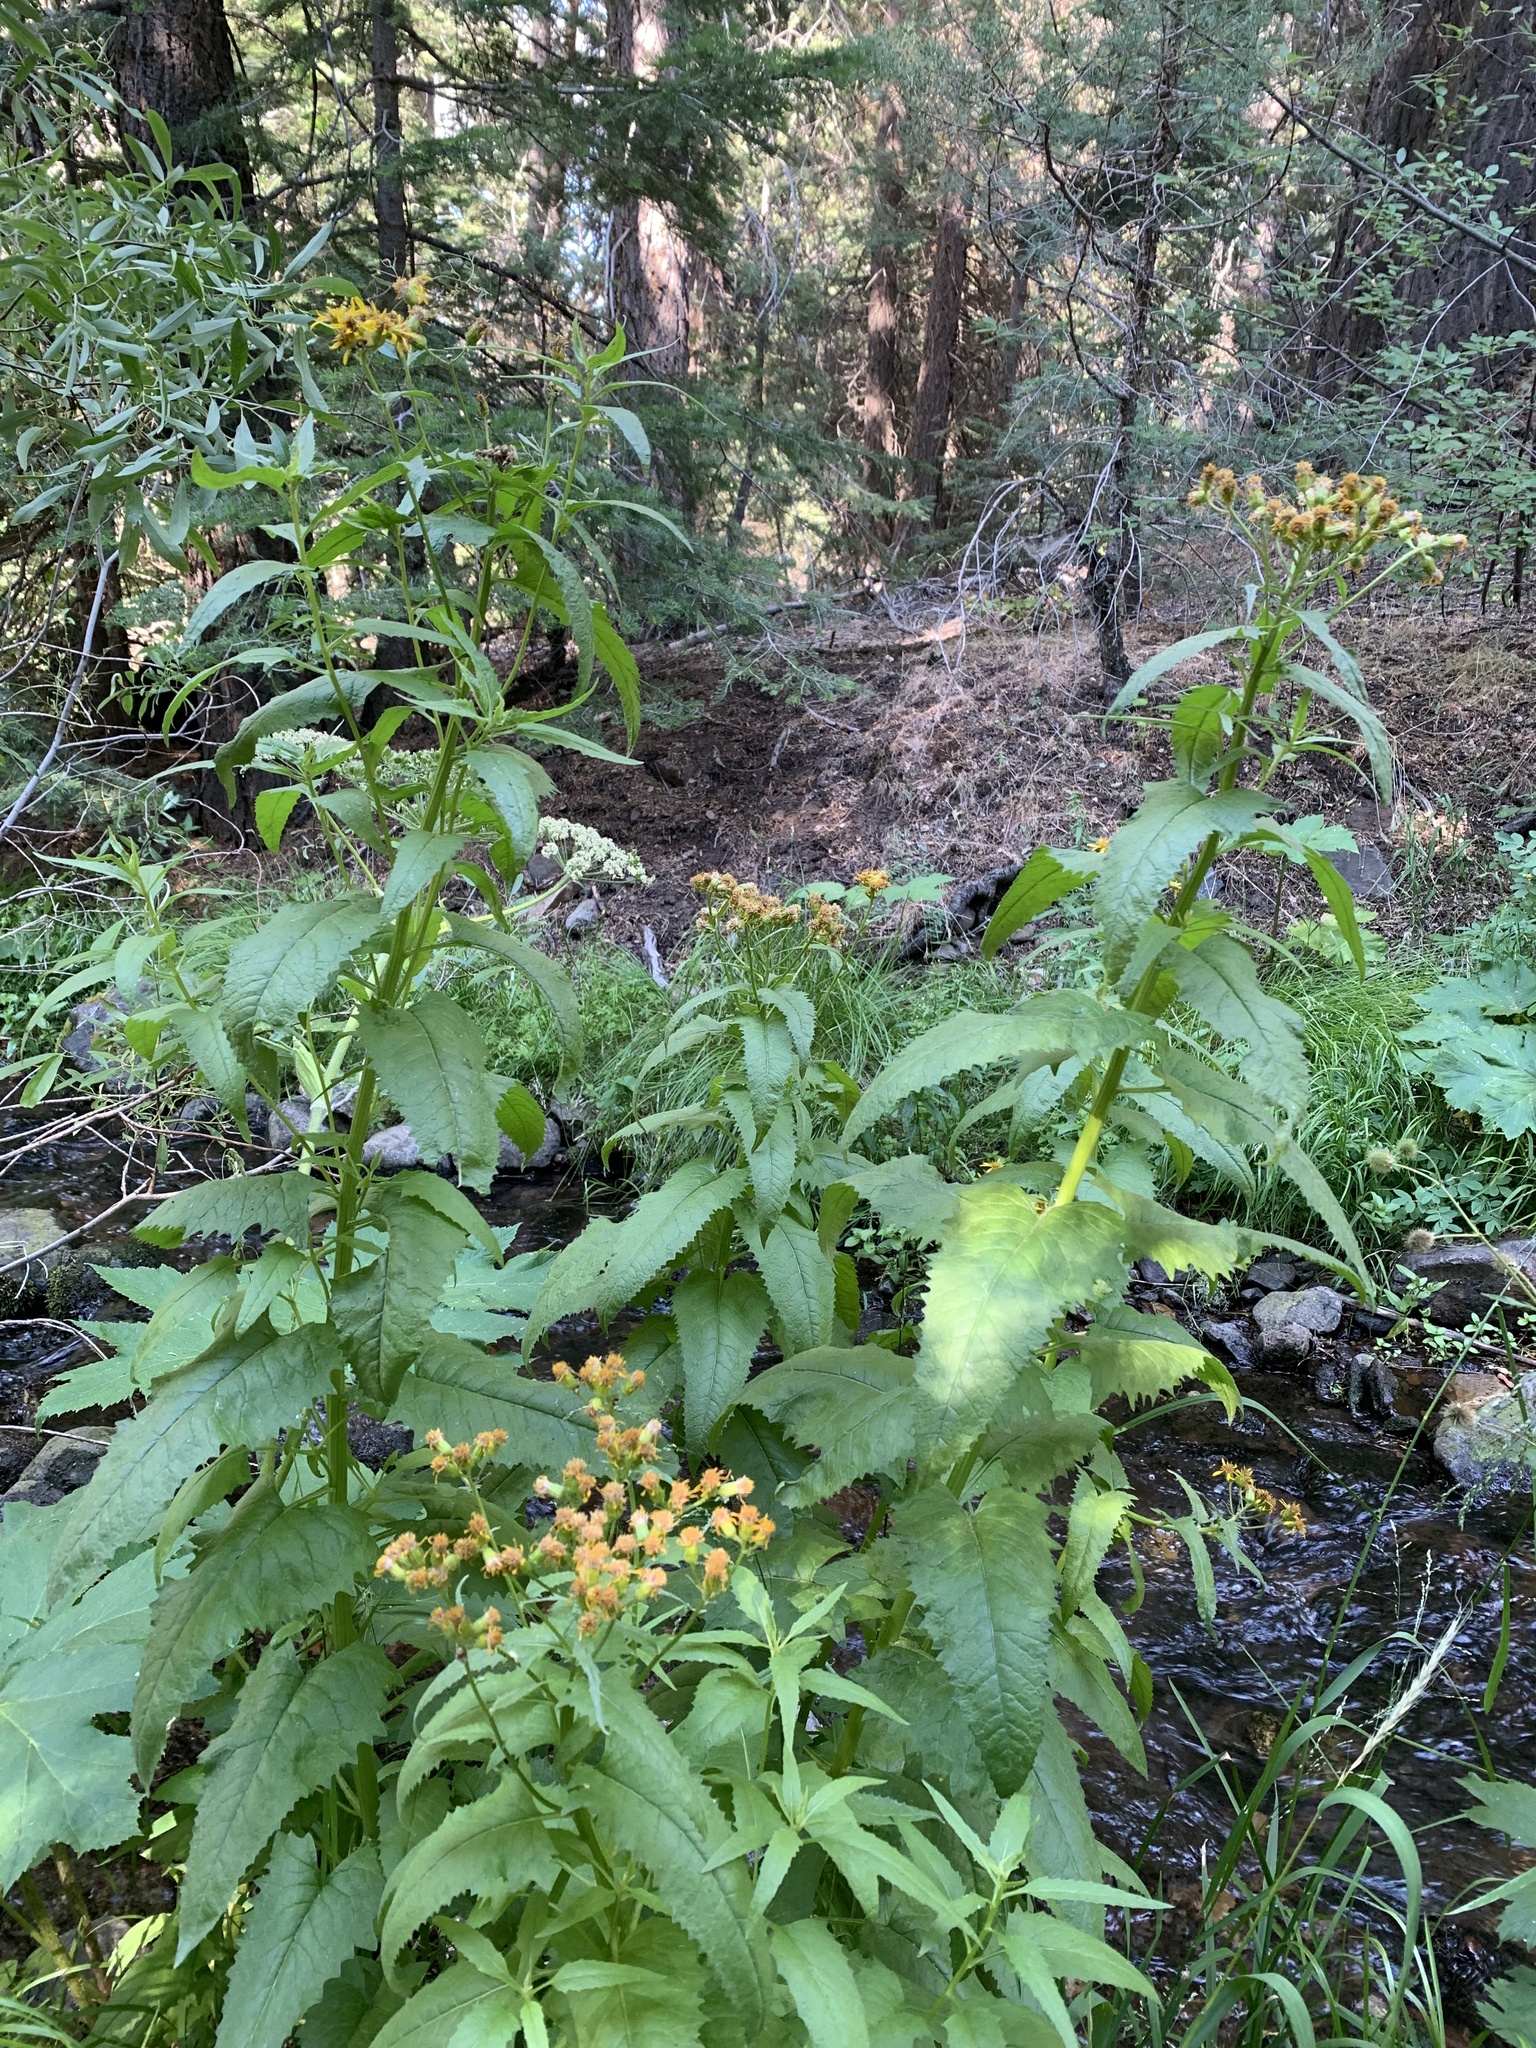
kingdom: Plantae
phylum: Tracheophyta
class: Magnoliopsida
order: Asterales
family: Asteraceae
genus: Senecio
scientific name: Senecio triangularis
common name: Arrowleaf butterweed
